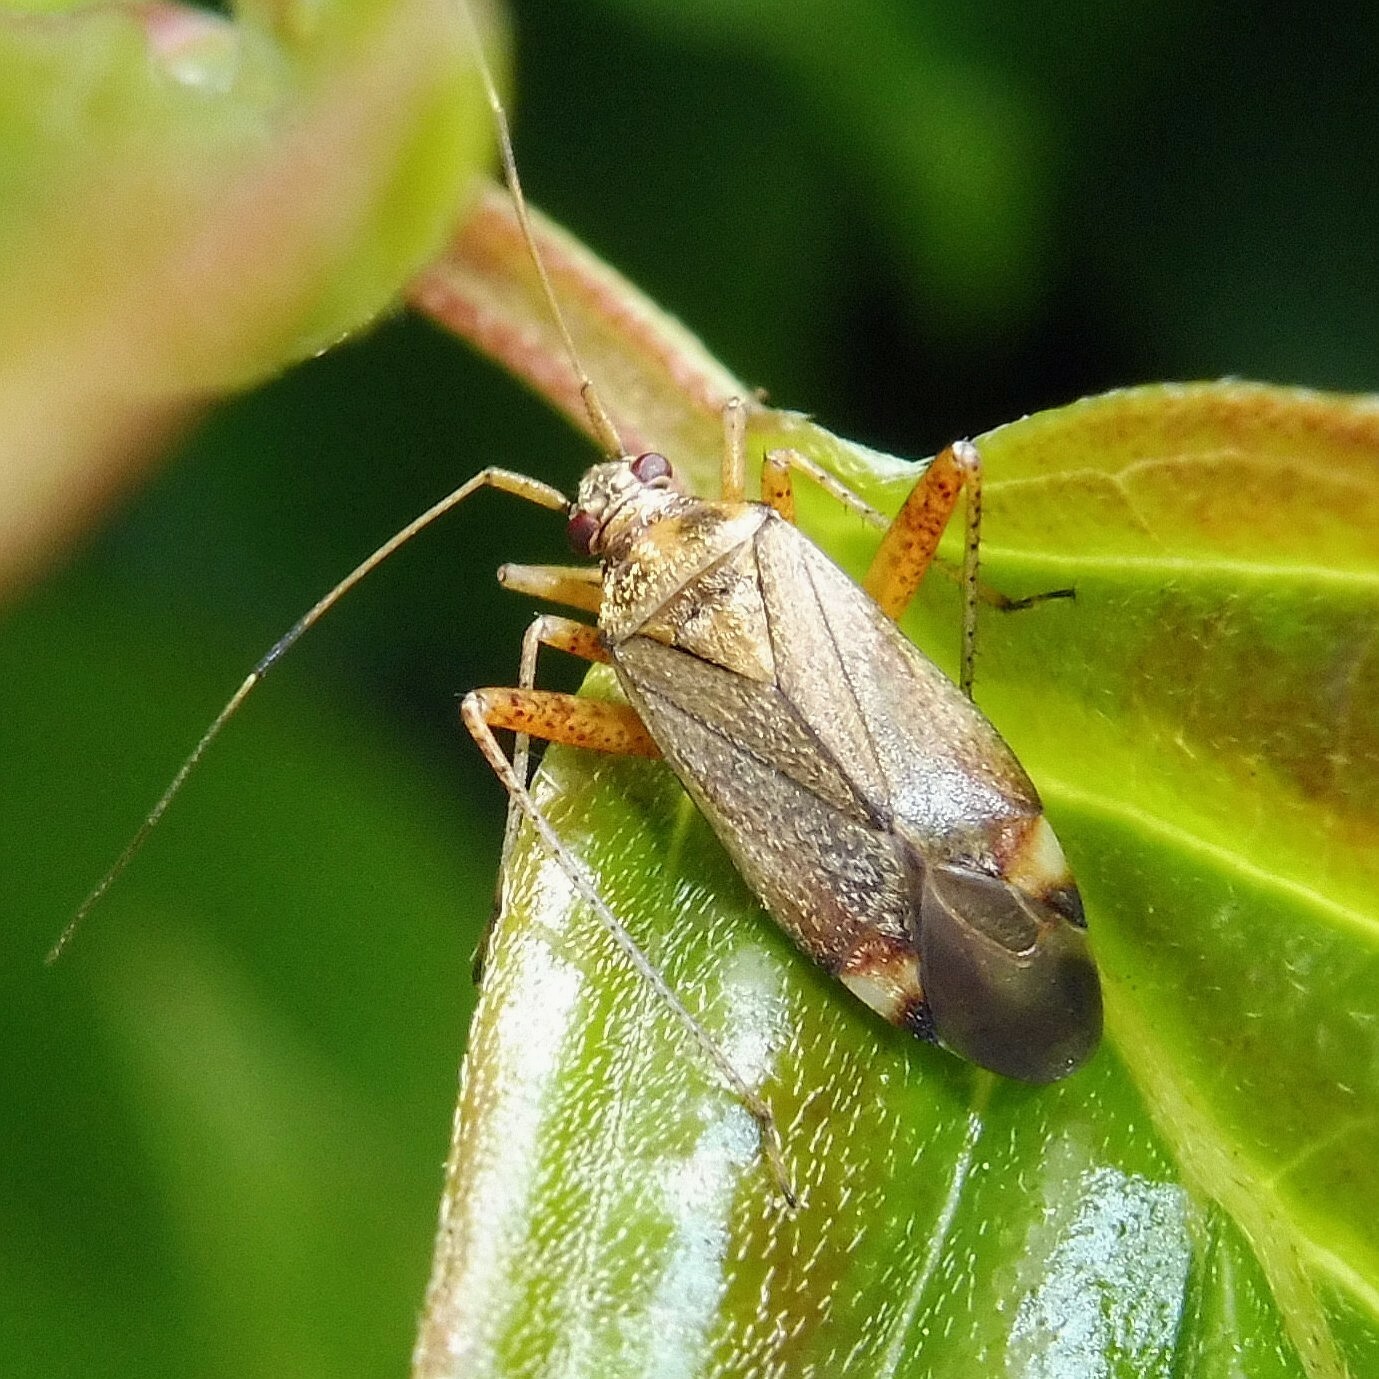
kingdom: Animalia
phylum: Arthropoda
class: Insecta
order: Hemiptera
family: Miridae
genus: Closterotomus
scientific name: Closterotomus fulvomaculatus
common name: Spotted plant bug
